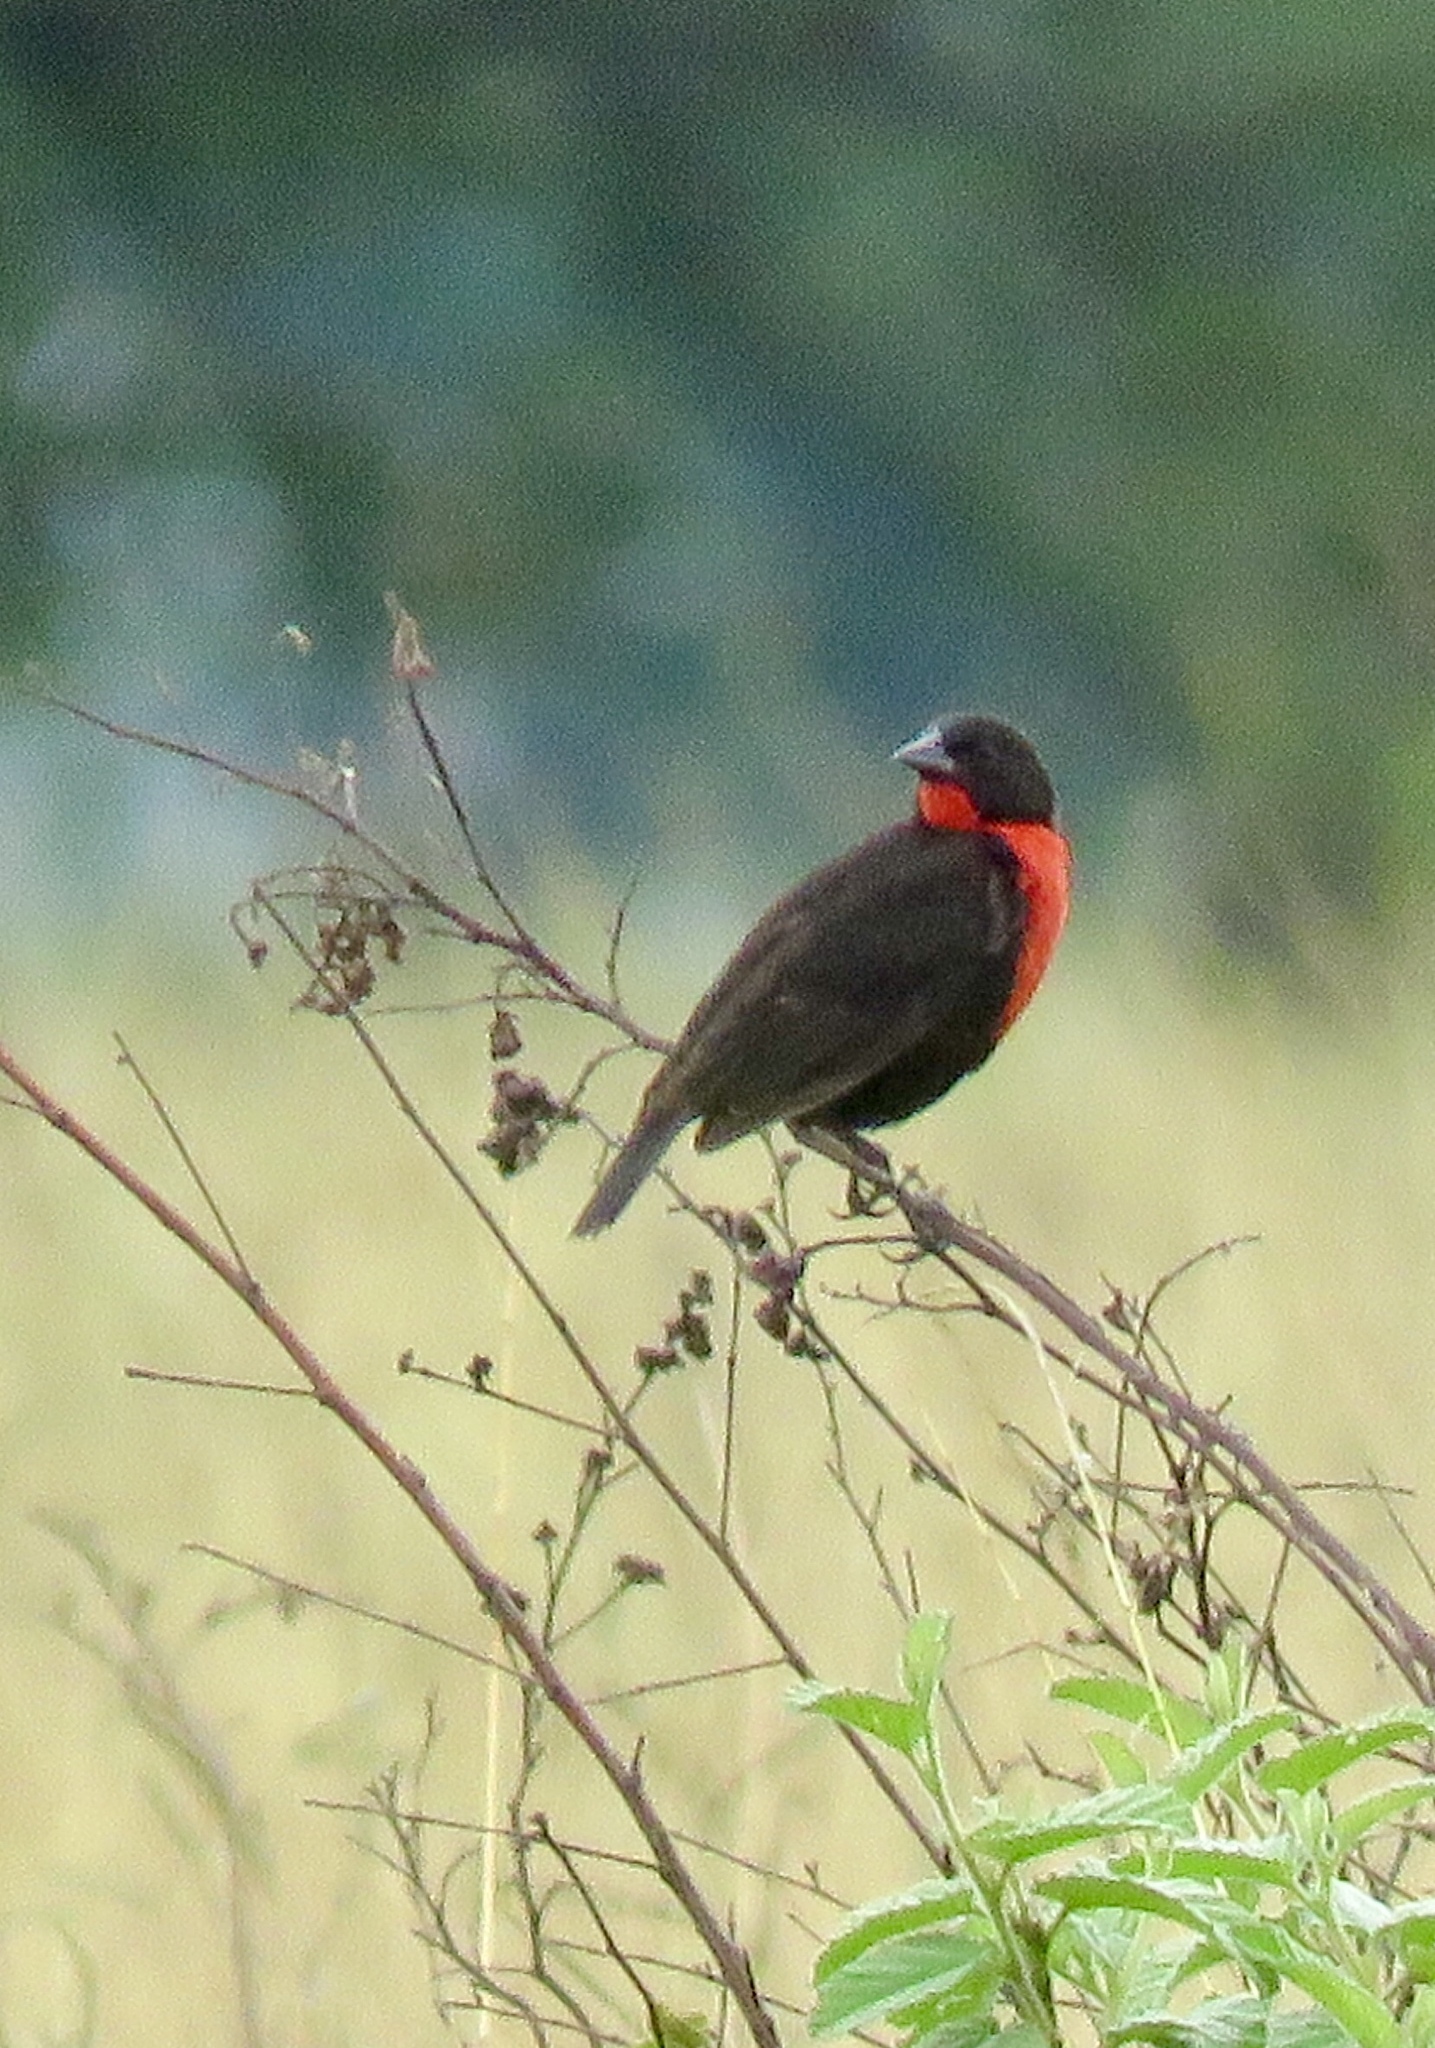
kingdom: Animalia
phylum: Chordata
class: Aves
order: Passeriformes
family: Icteridae
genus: Sturnella
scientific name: Sturnella militaris
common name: Red-breasted blackbird
